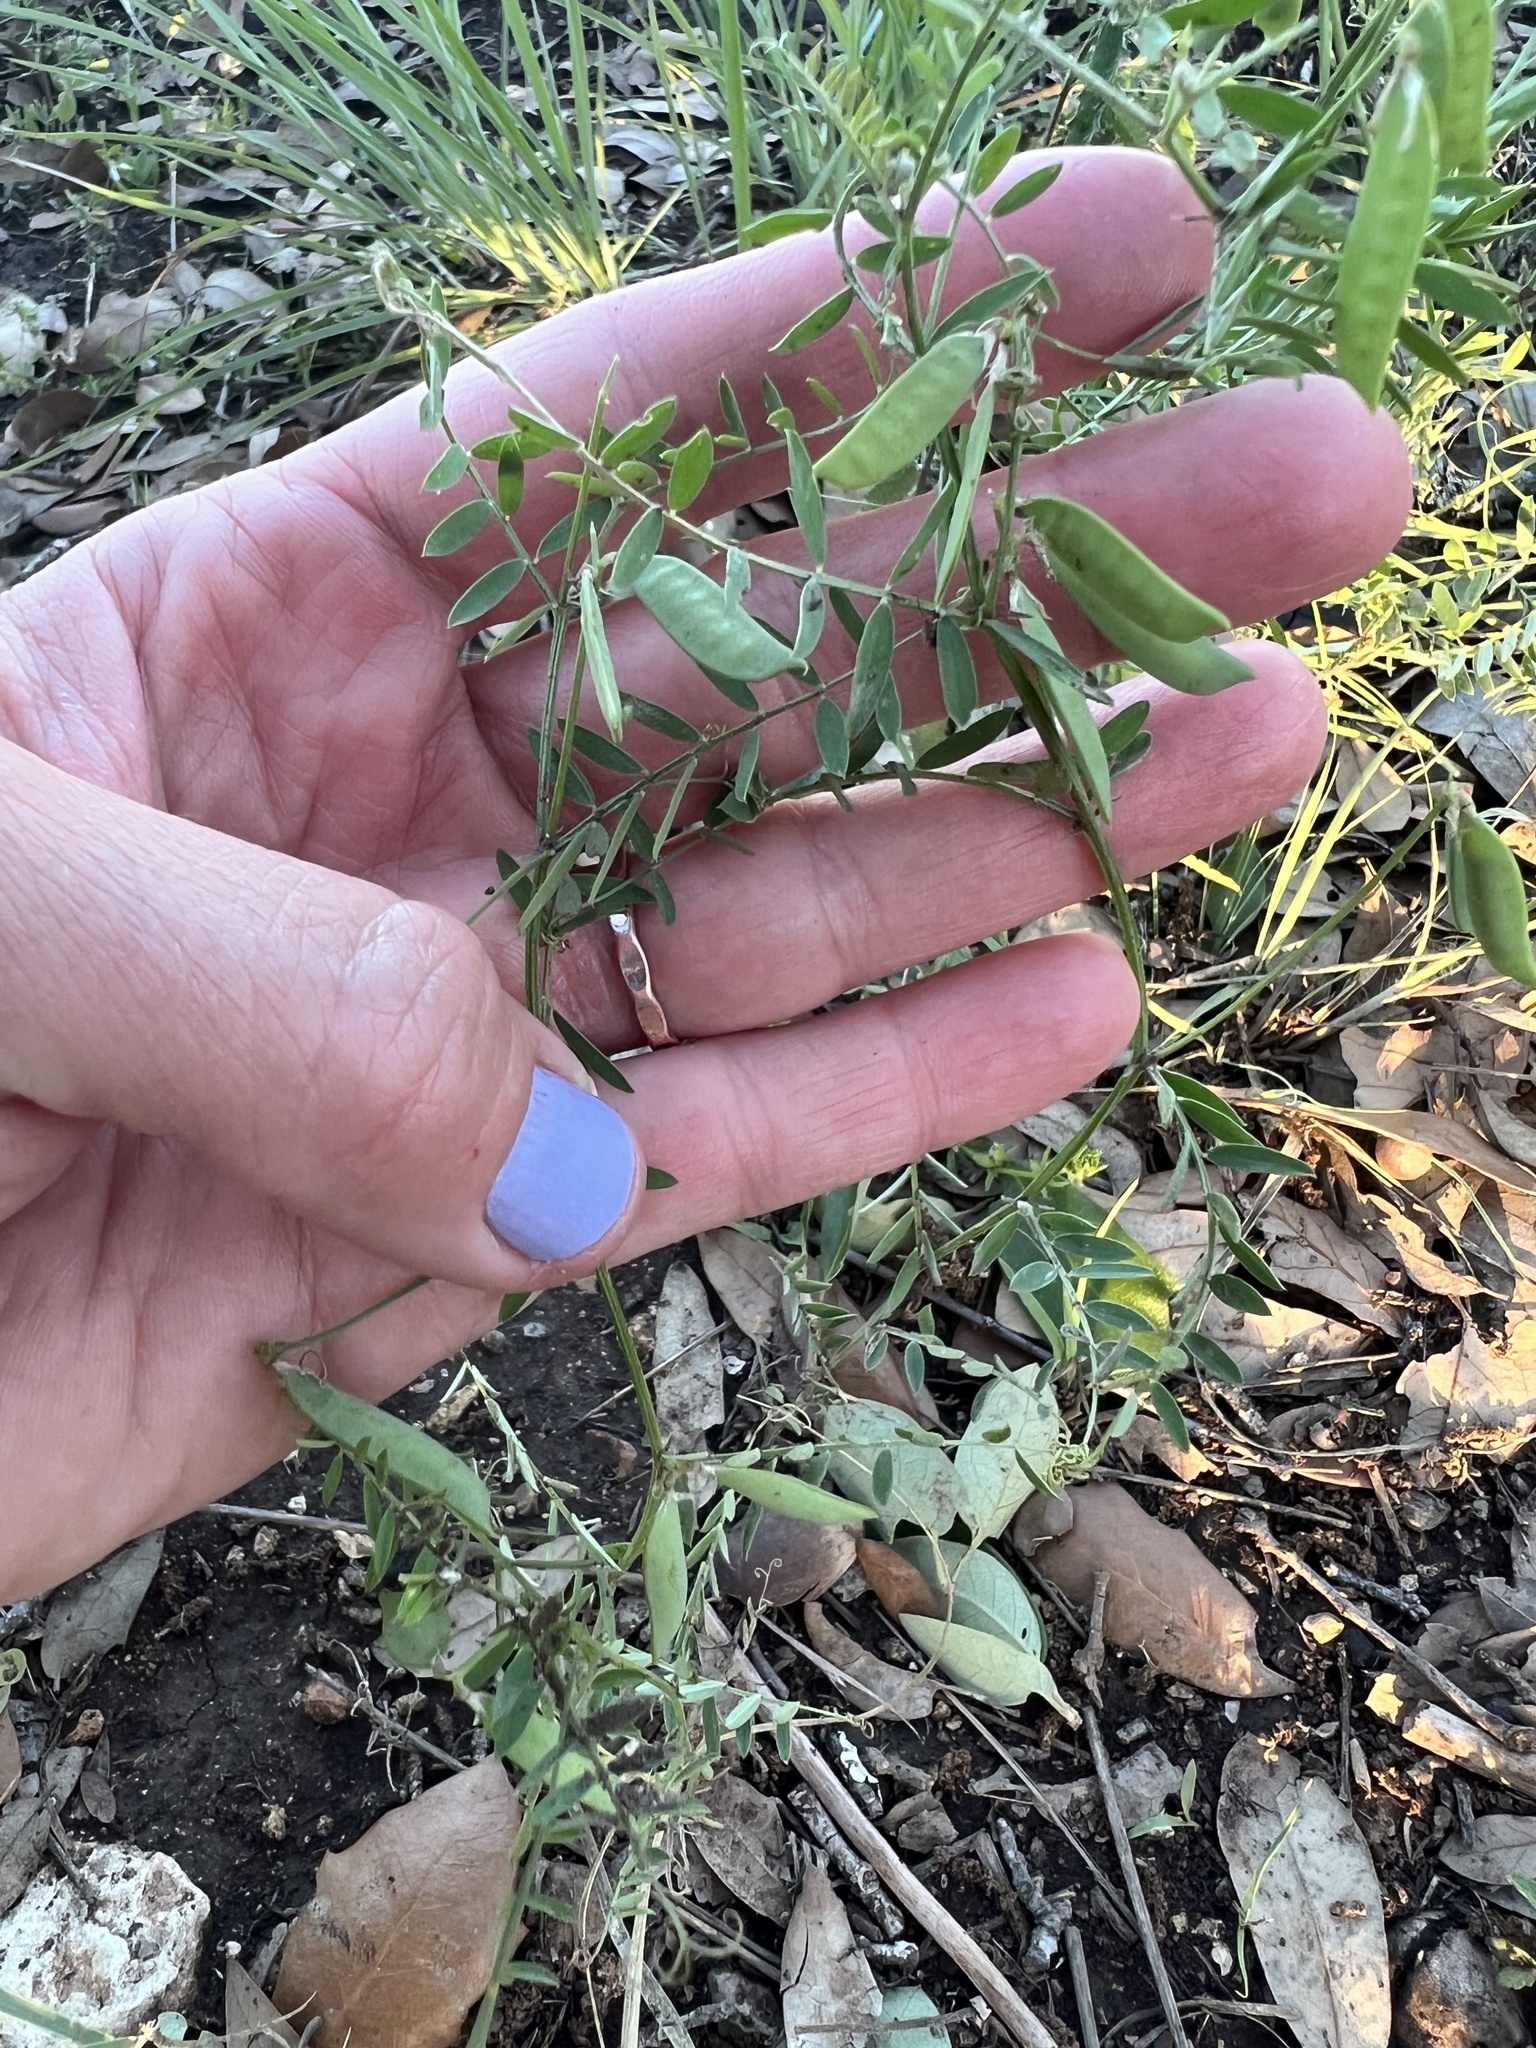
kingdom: Plantae
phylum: Tracheophyta
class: Magnoliopsida
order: Fabales
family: Fabaceae
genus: Vicia
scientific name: Vicia ludoviciana
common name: Louisiana vetch
